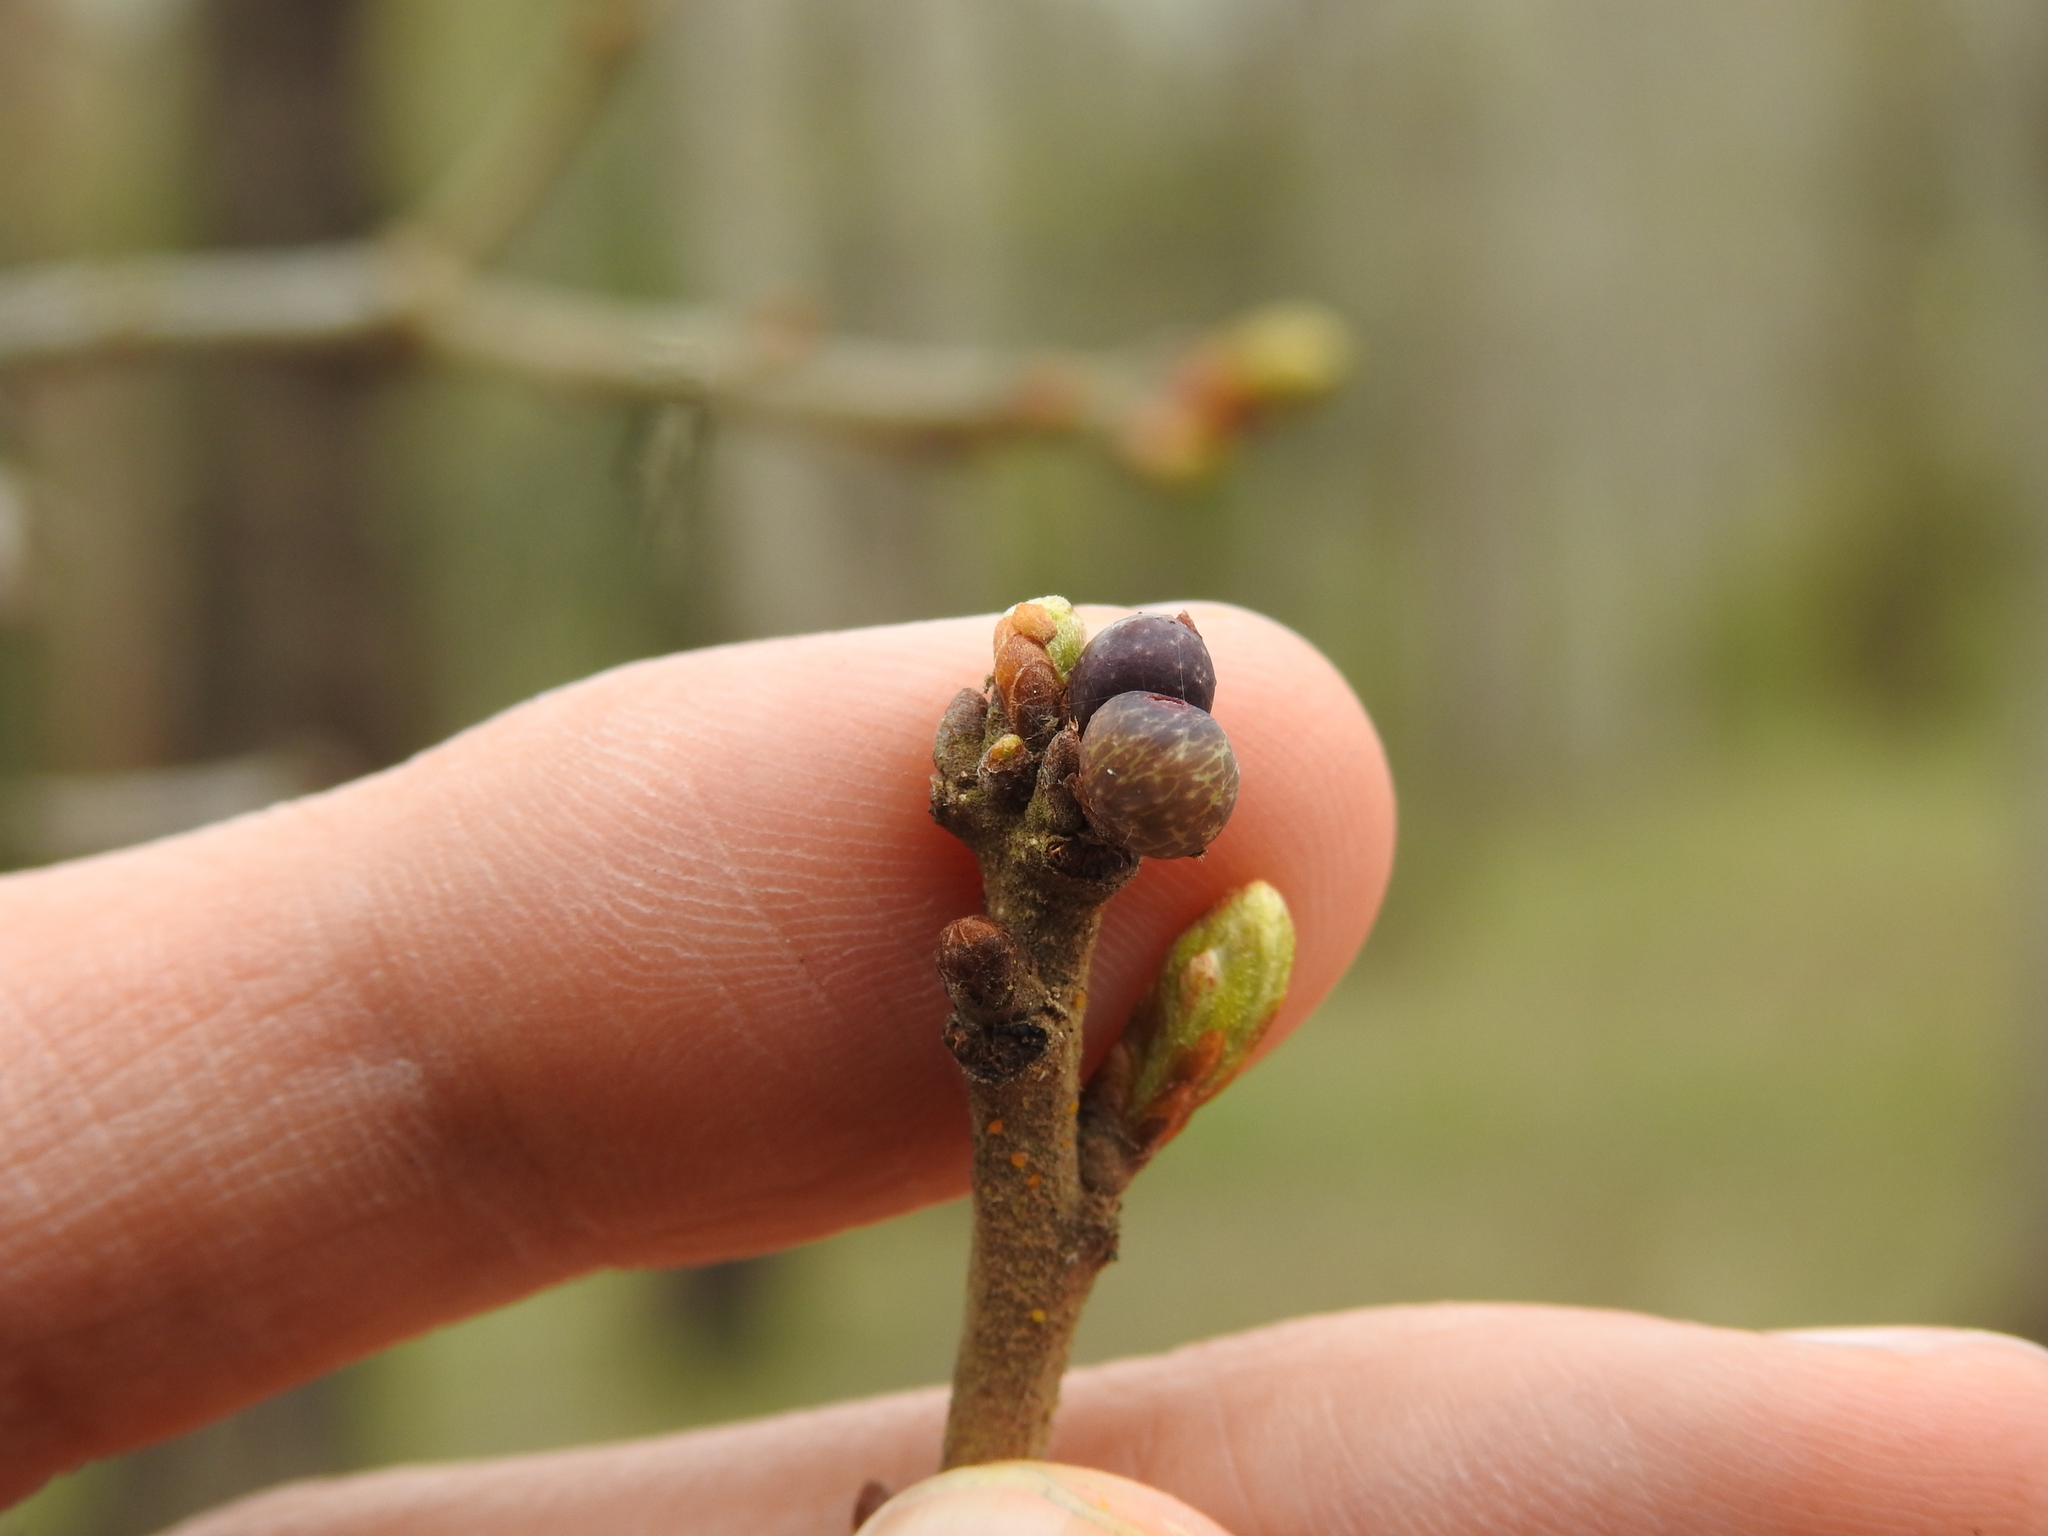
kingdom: Animalia
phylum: Arthropoda
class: Insecta
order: Hymenoptera
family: Cynipidae
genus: Neuroterus
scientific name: Neuroterus
